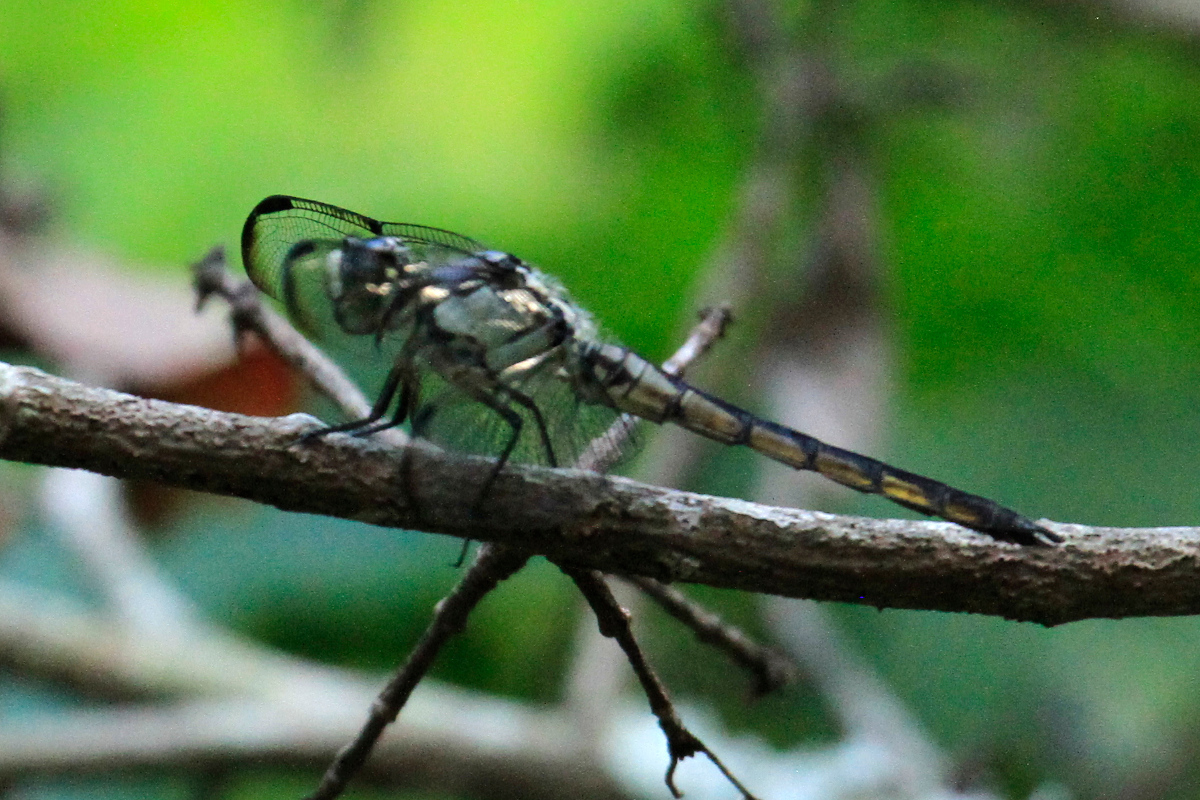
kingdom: Animalia
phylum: Arthropoda
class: Insecta
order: Odonata
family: Libellulidae
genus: Libellula
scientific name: Libellula vibrans
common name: Great blue skimmer
